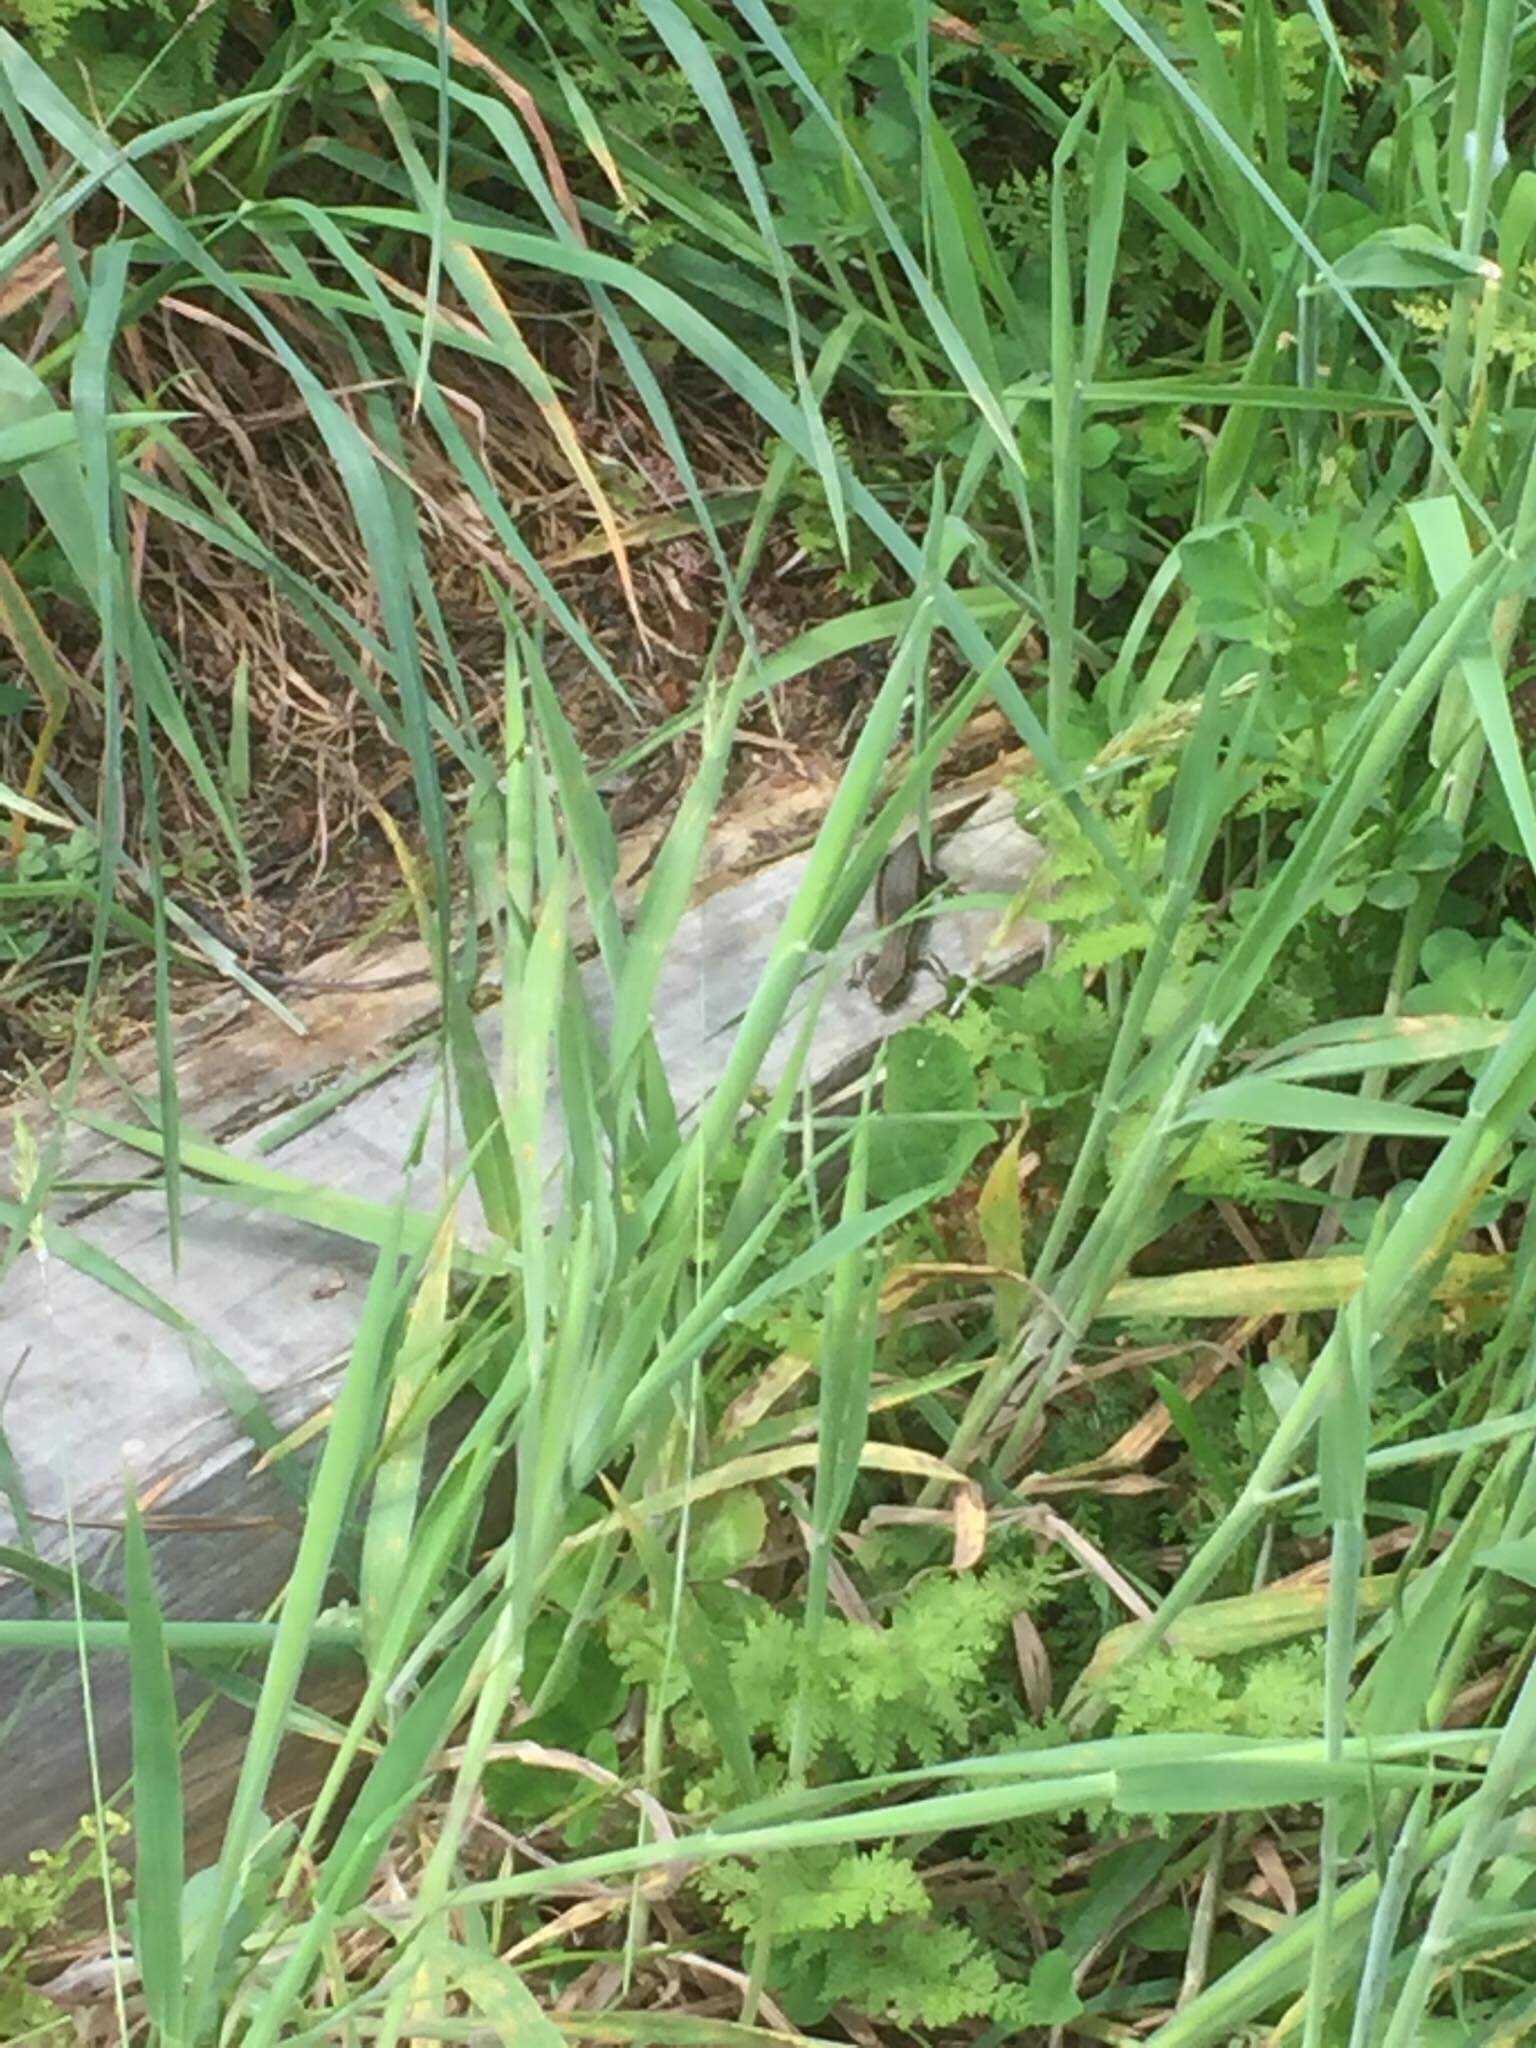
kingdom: Animalia
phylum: Chordata
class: Squamata
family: Scincidae
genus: Oligosoma
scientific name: Oligosoma polychroma
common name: Common new zealand skink
